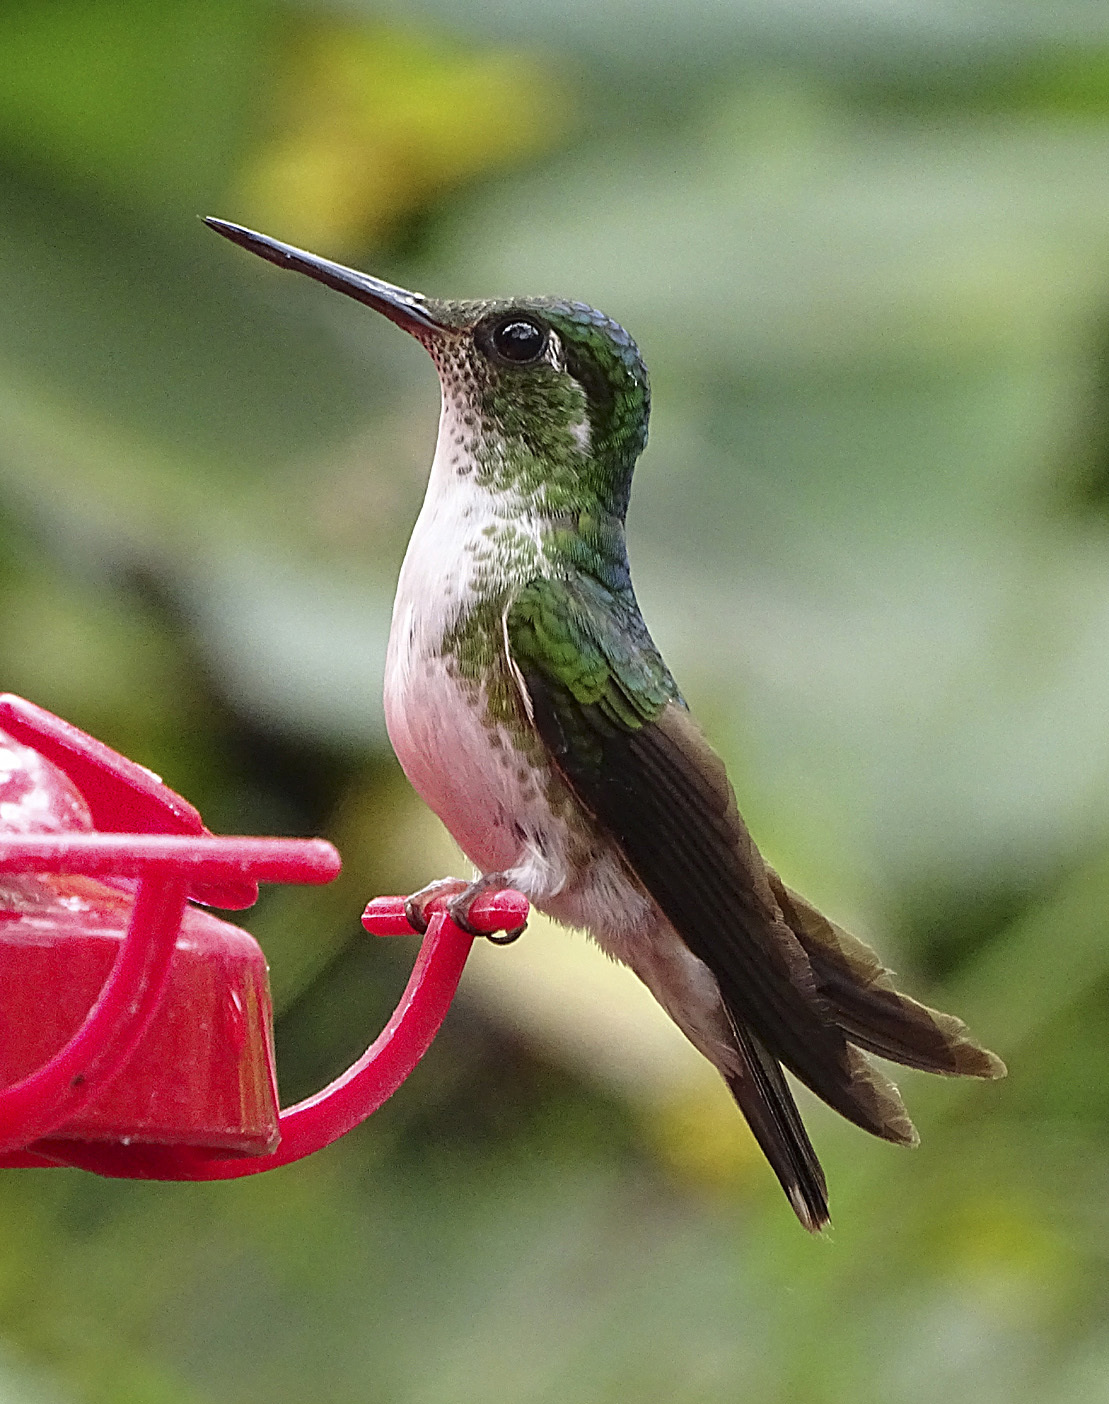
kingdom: Animalia
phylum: Chordata
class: Aves
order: Apodiformes
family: Trochilidae
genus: Lampornis
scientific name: Lampornis hemileucus
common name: White-bellied mountain-gem
